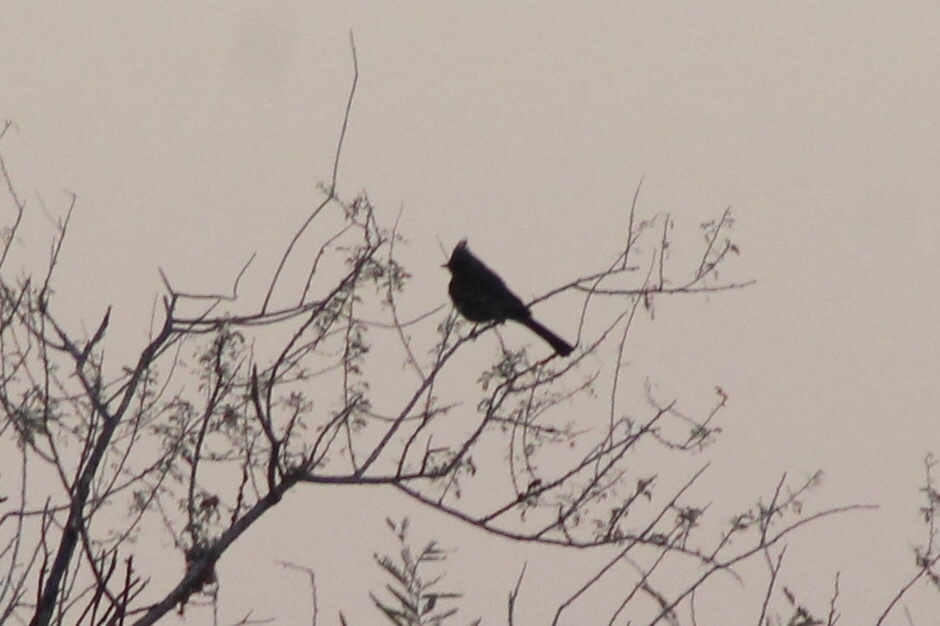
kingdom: Animalia
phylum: Chordata
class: Aves
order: Passeriformes
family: Ptilogonatidae
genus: Phainopepla
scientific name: Phainopepla nitens
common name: Phainopepla
